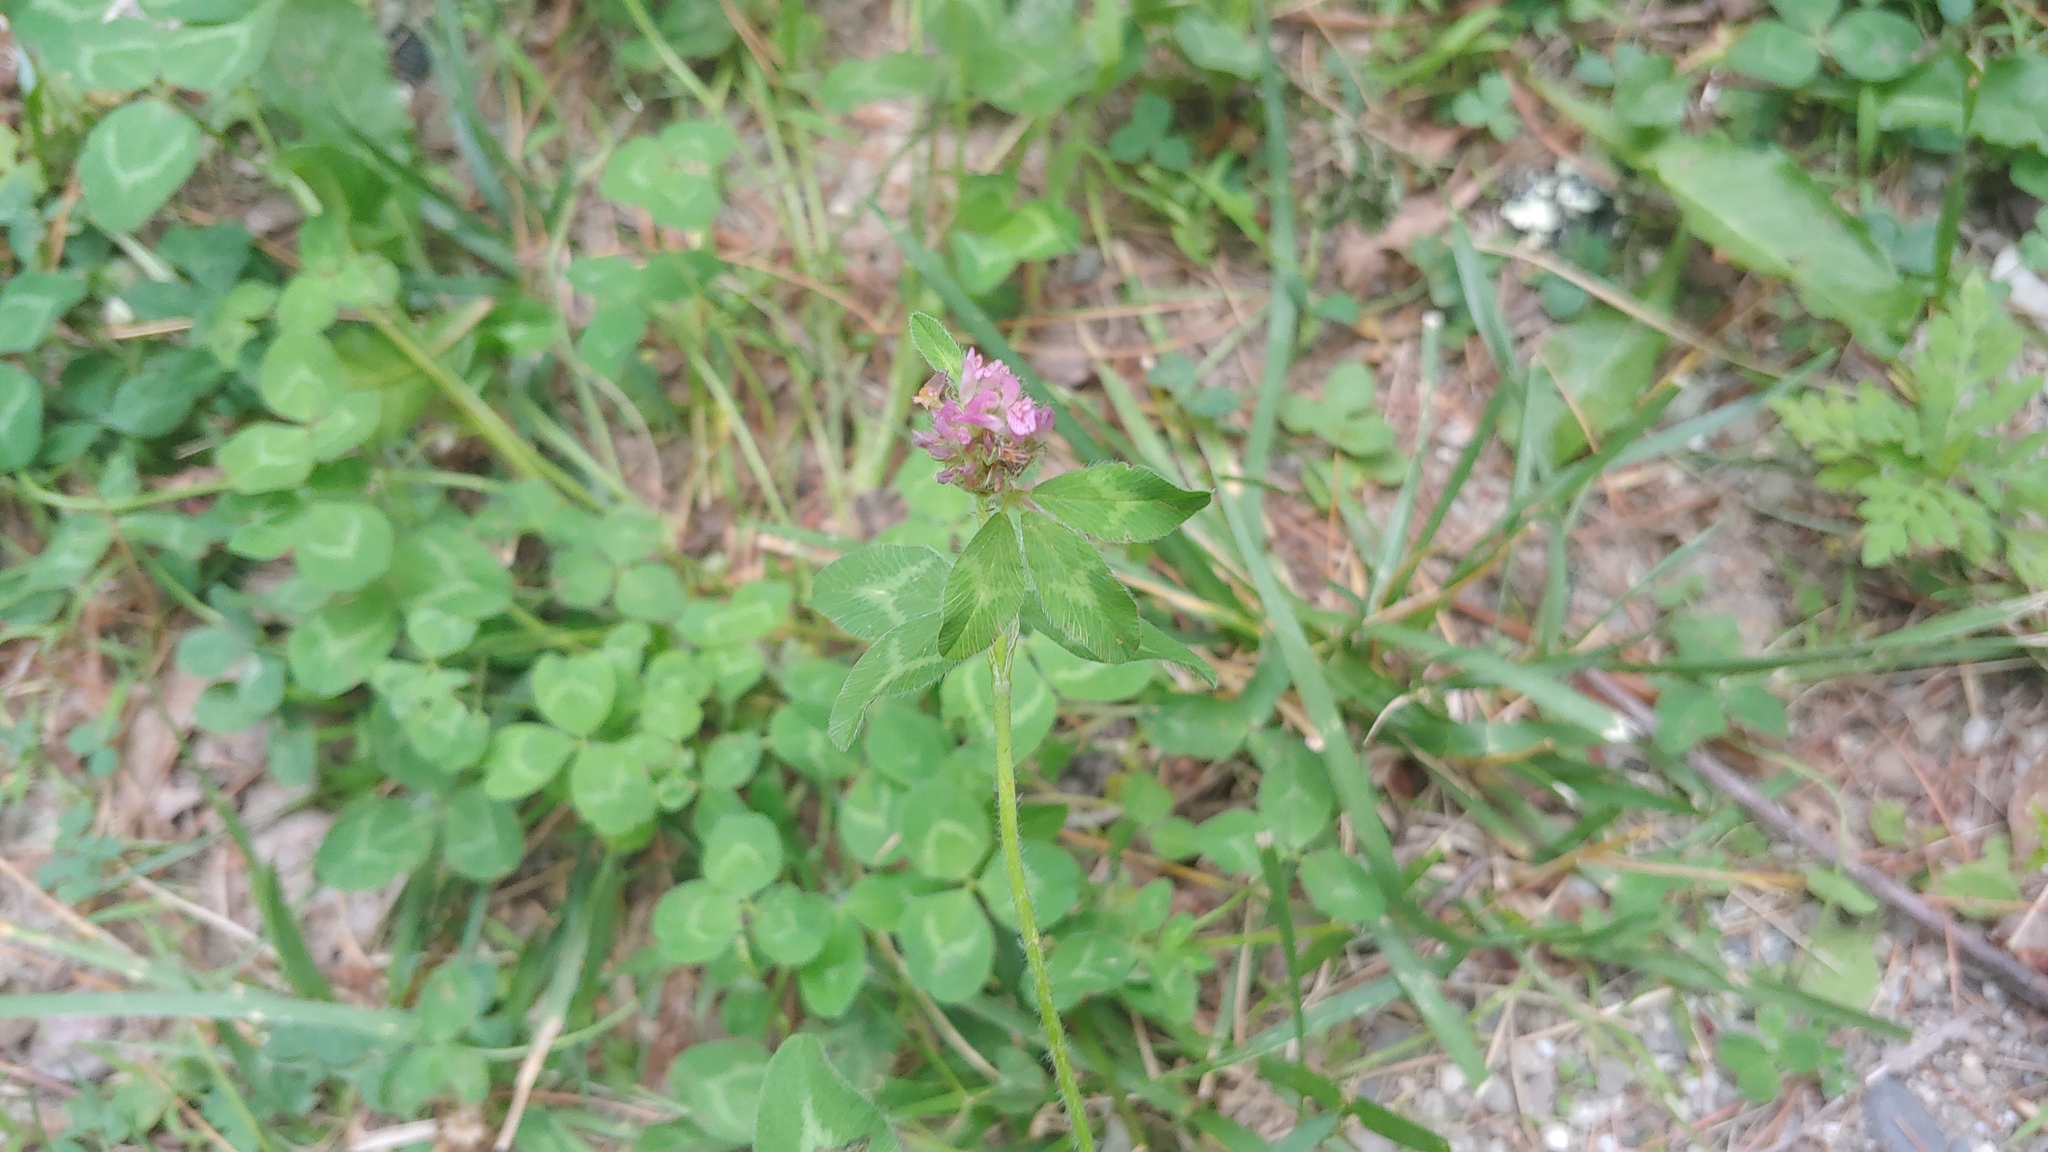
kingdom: Plantae
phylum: Tracheophyta
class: Magnoliopsida
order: Fabales
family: Fabaceae
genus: Trifolium
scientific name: Trifolium pratense
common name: Red clover
